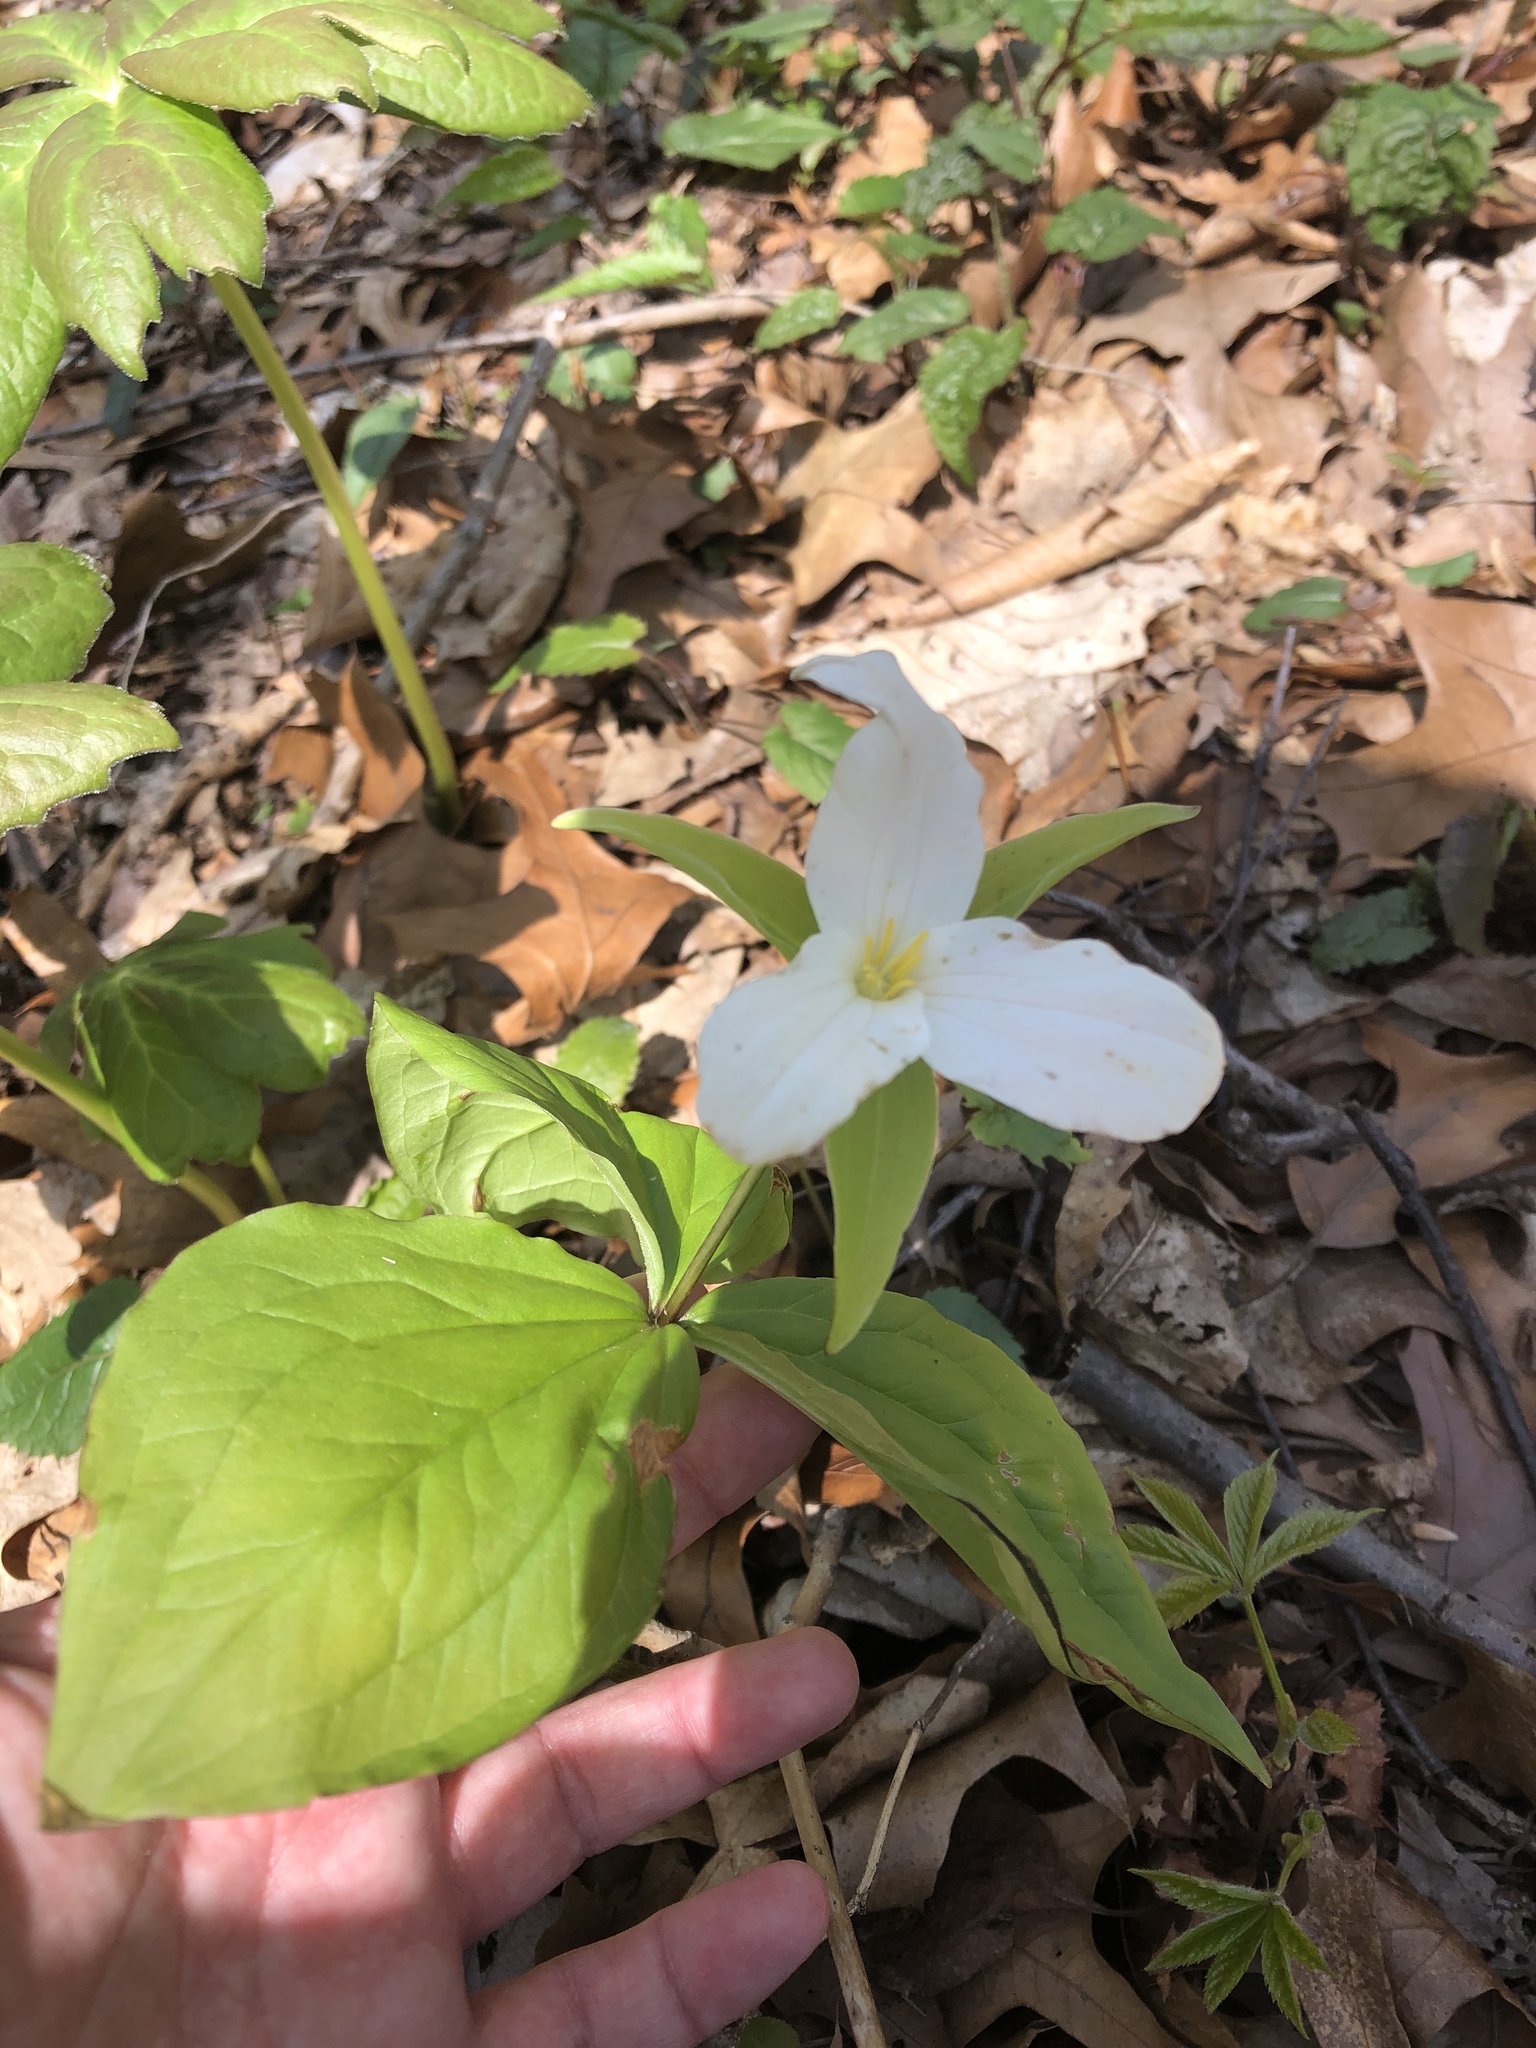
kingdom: Plantae
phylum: Tracheophyta
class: Liliopsida
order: Liliales
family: Melanthiaceae
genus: Trillium
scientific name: Trillium grandiflorum
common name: Great white trillium
